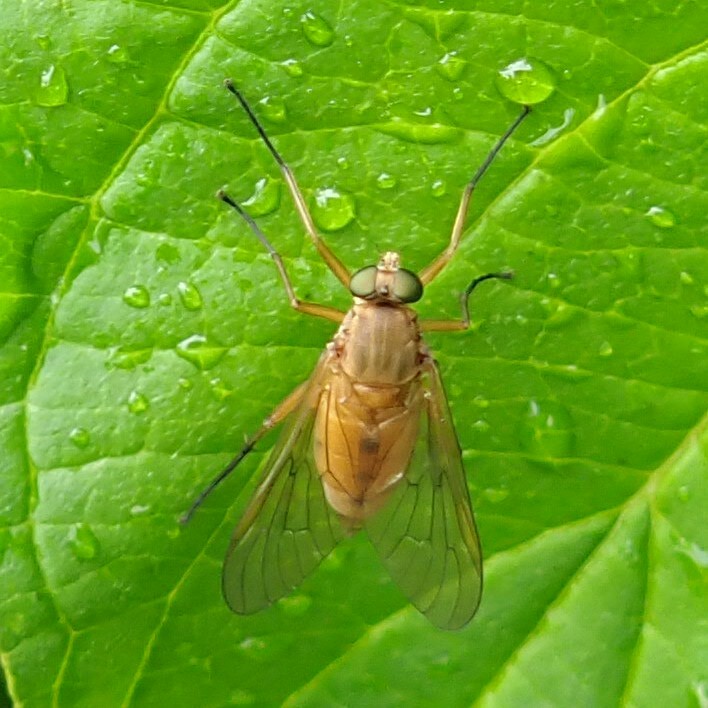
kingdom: Animalia
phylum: Arthropoda
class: Insecta
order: Diptera
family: Rhagionidae
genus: Rhagio
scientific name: Rhagio tringaria
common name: Marsh snipefly
